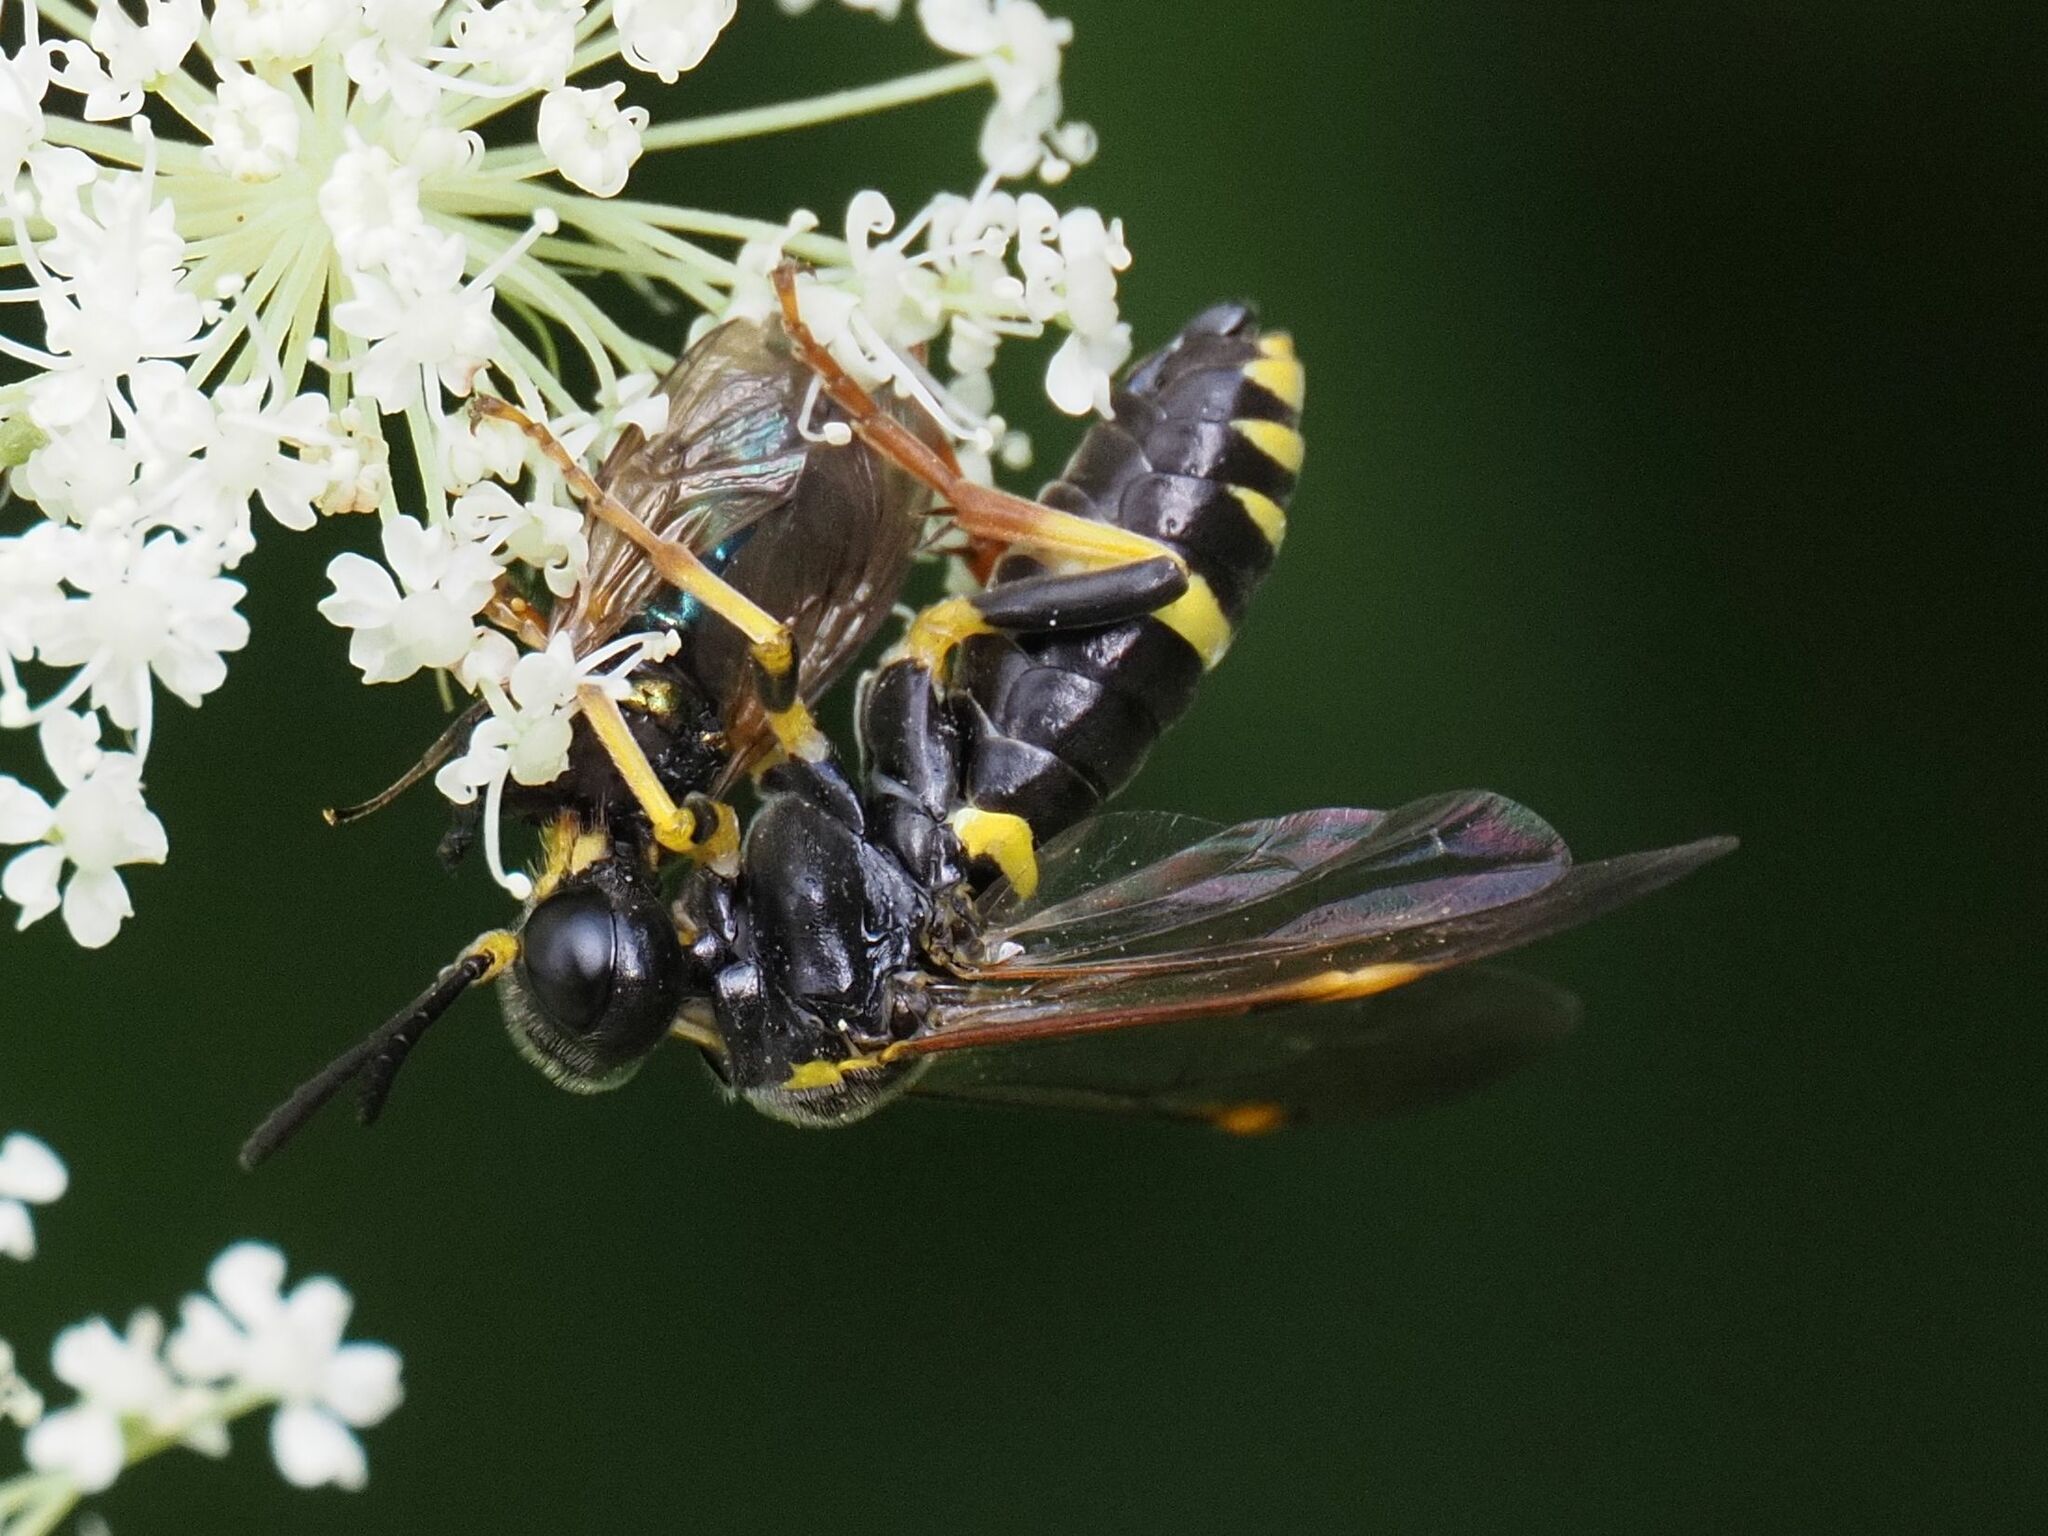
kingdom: Animalia
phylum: Arthropoda
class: Insecta
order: Hymenoptera
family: Tenthredinidae
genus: Tenthredo
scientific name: Tenthredo amoena
